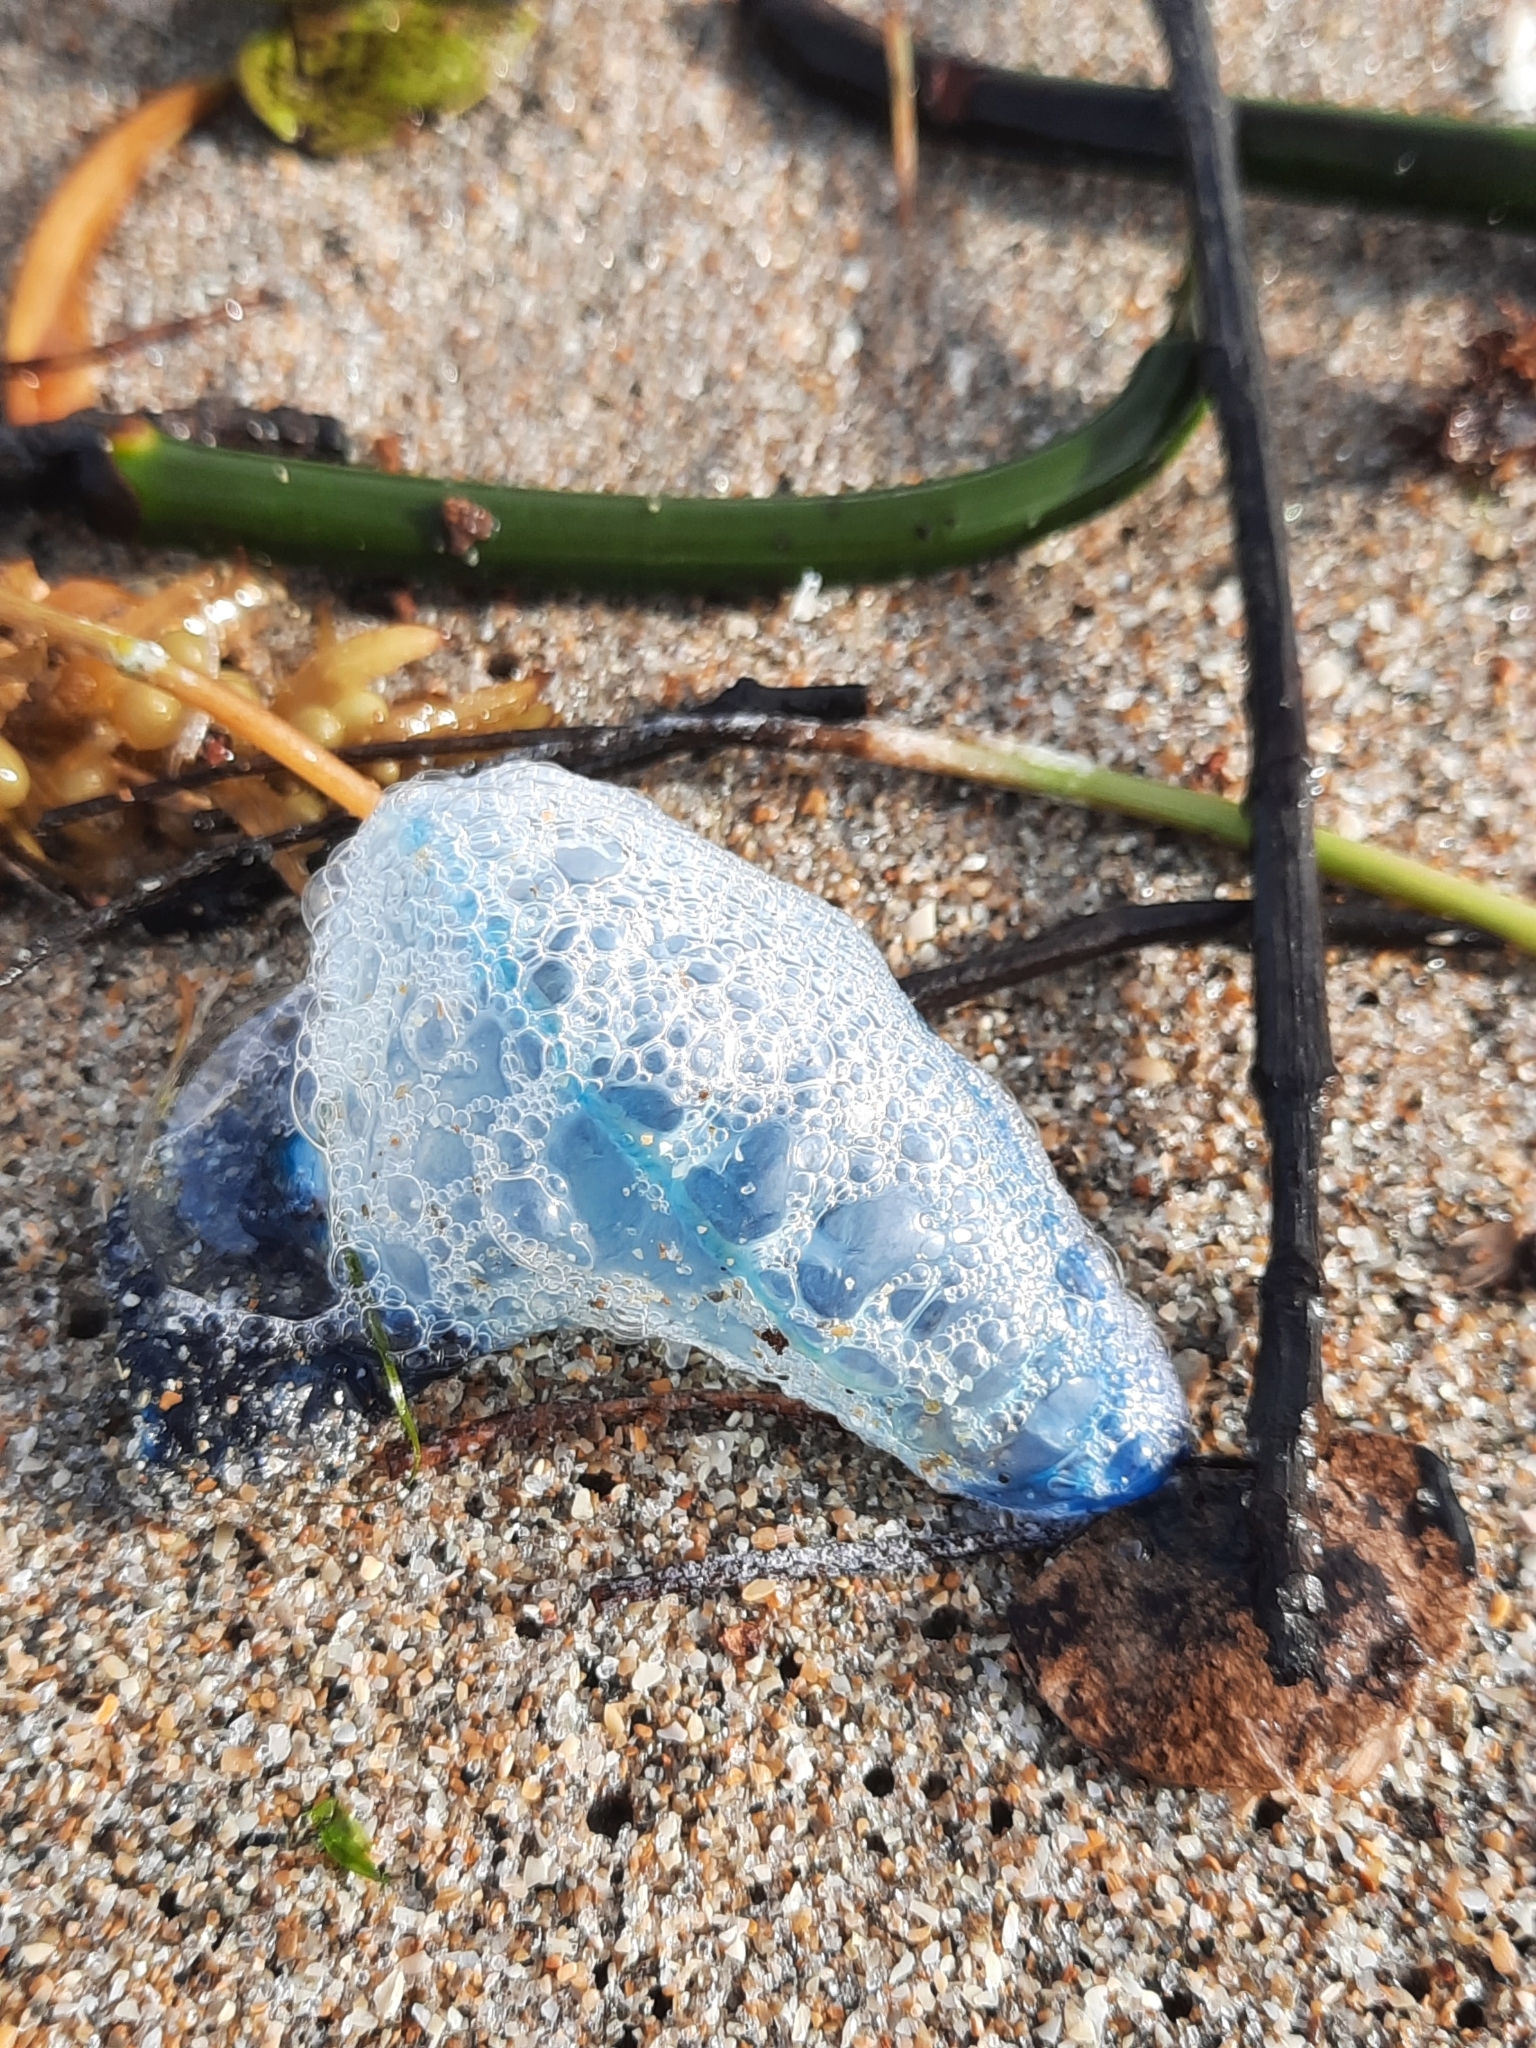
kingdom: Animalia
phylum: Cnidaria
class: Hydrozoa
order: Siphonophorae
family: Physaliidae
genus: Physalia
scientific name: Physalia physalis
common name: Portuguese man-of-war
